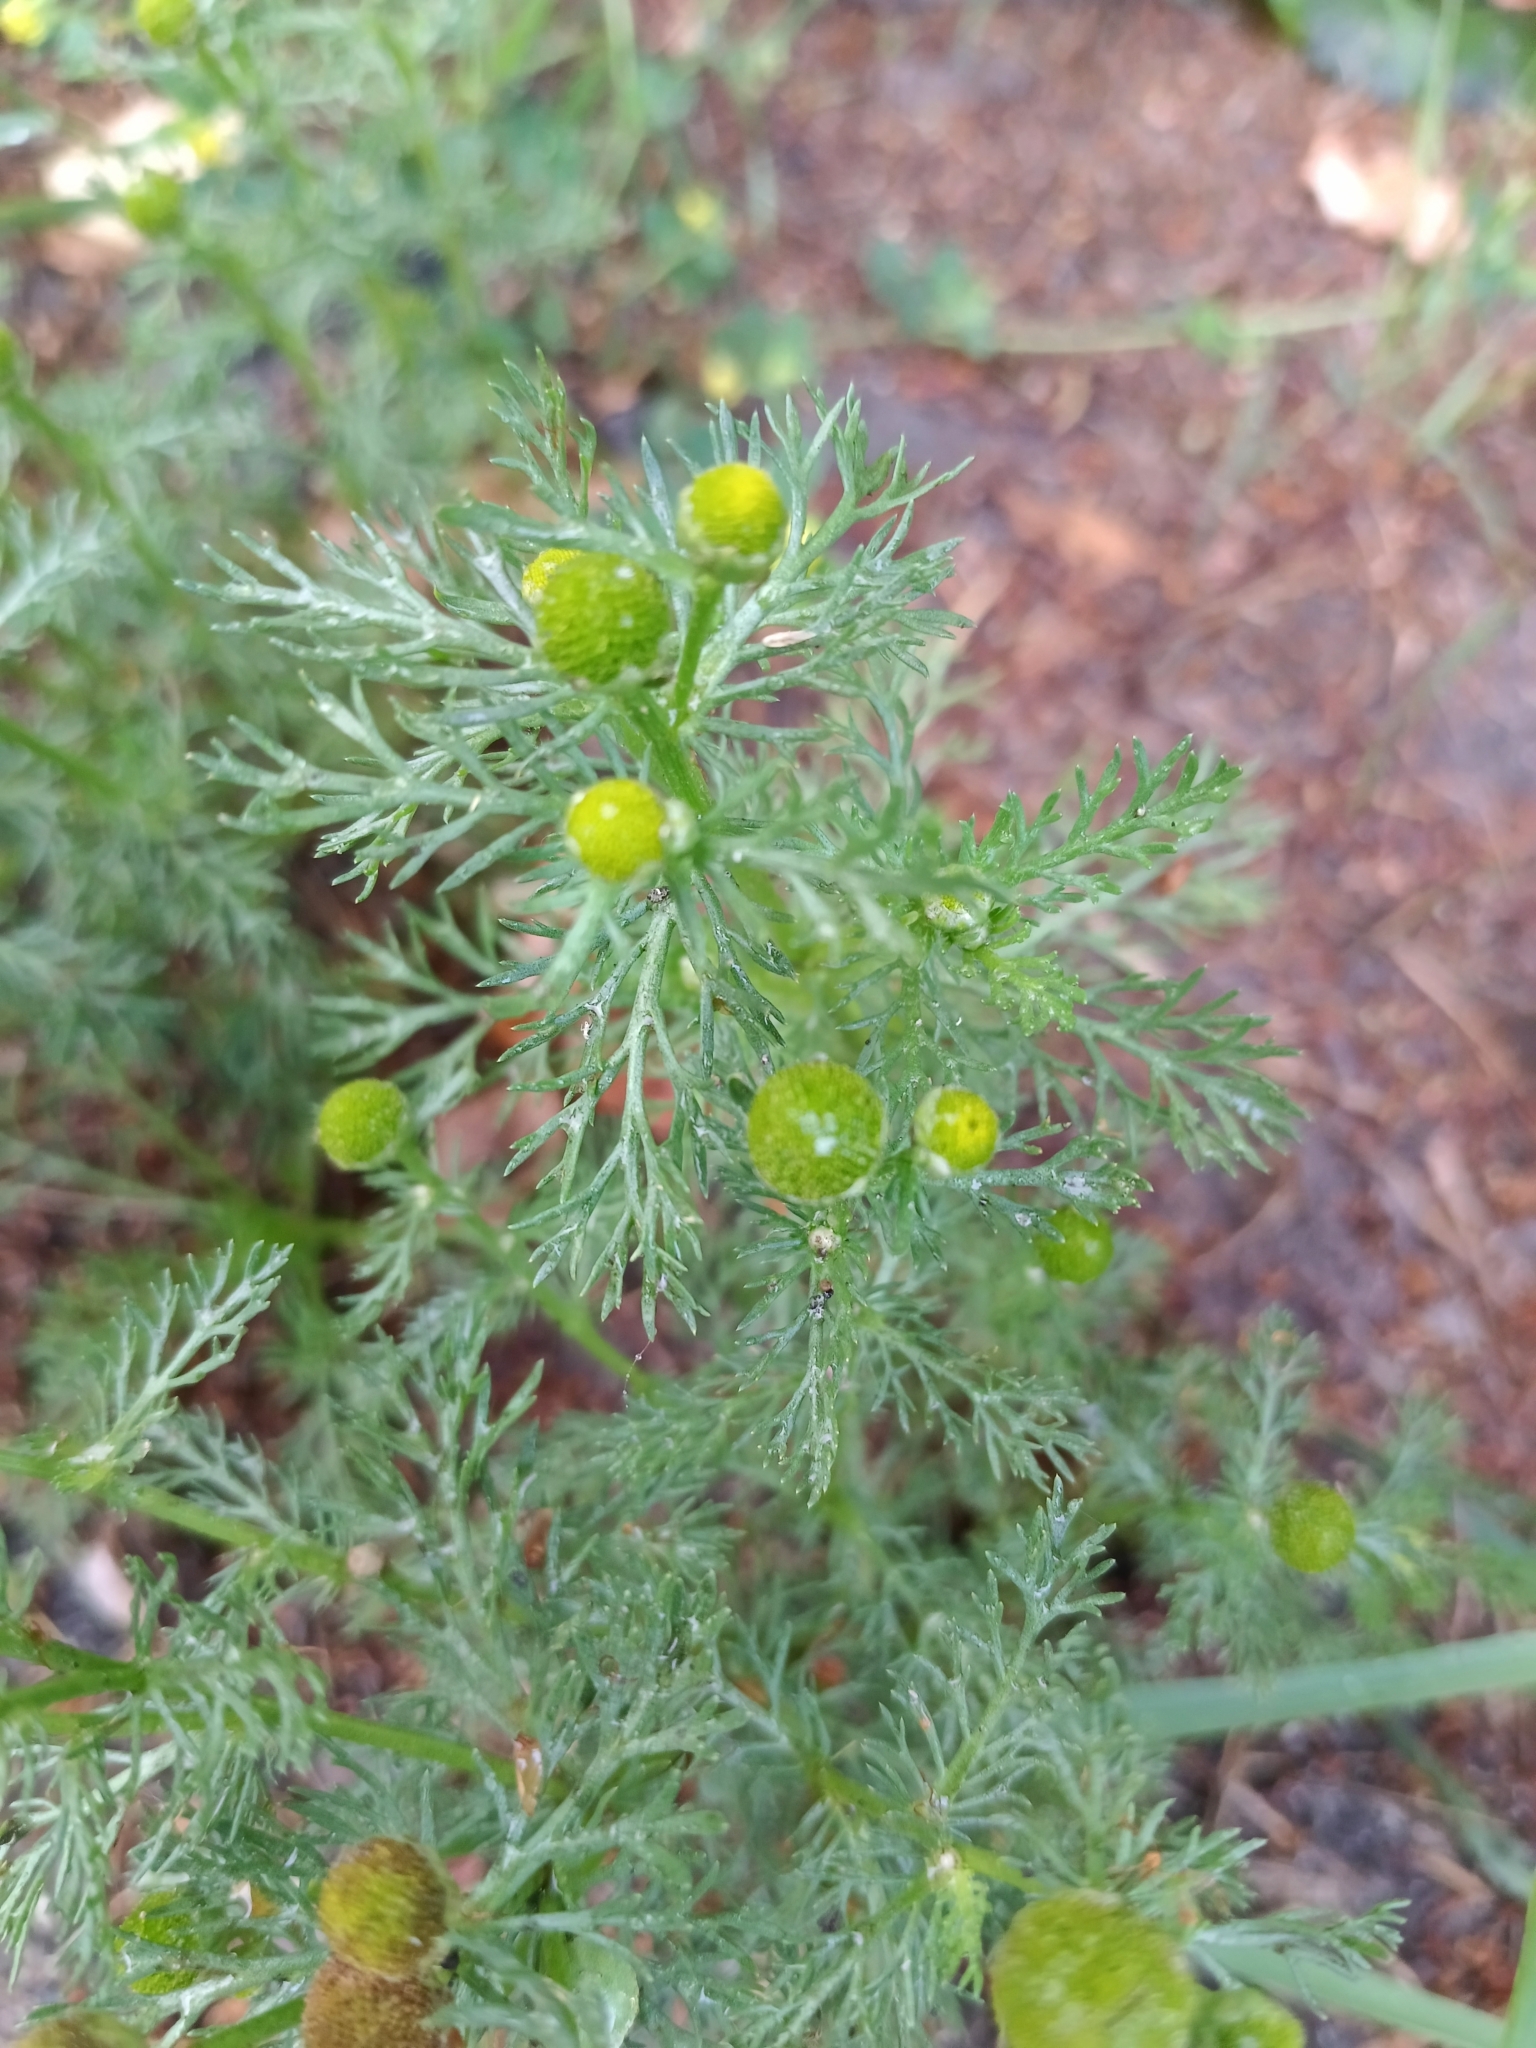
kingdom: Plantae
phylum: Tracheophyta
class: Magnoliopsida
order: Asterales
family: Asteraceae
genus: Matricaria
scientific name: Matricaria discoidea
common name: Disc mayweed
